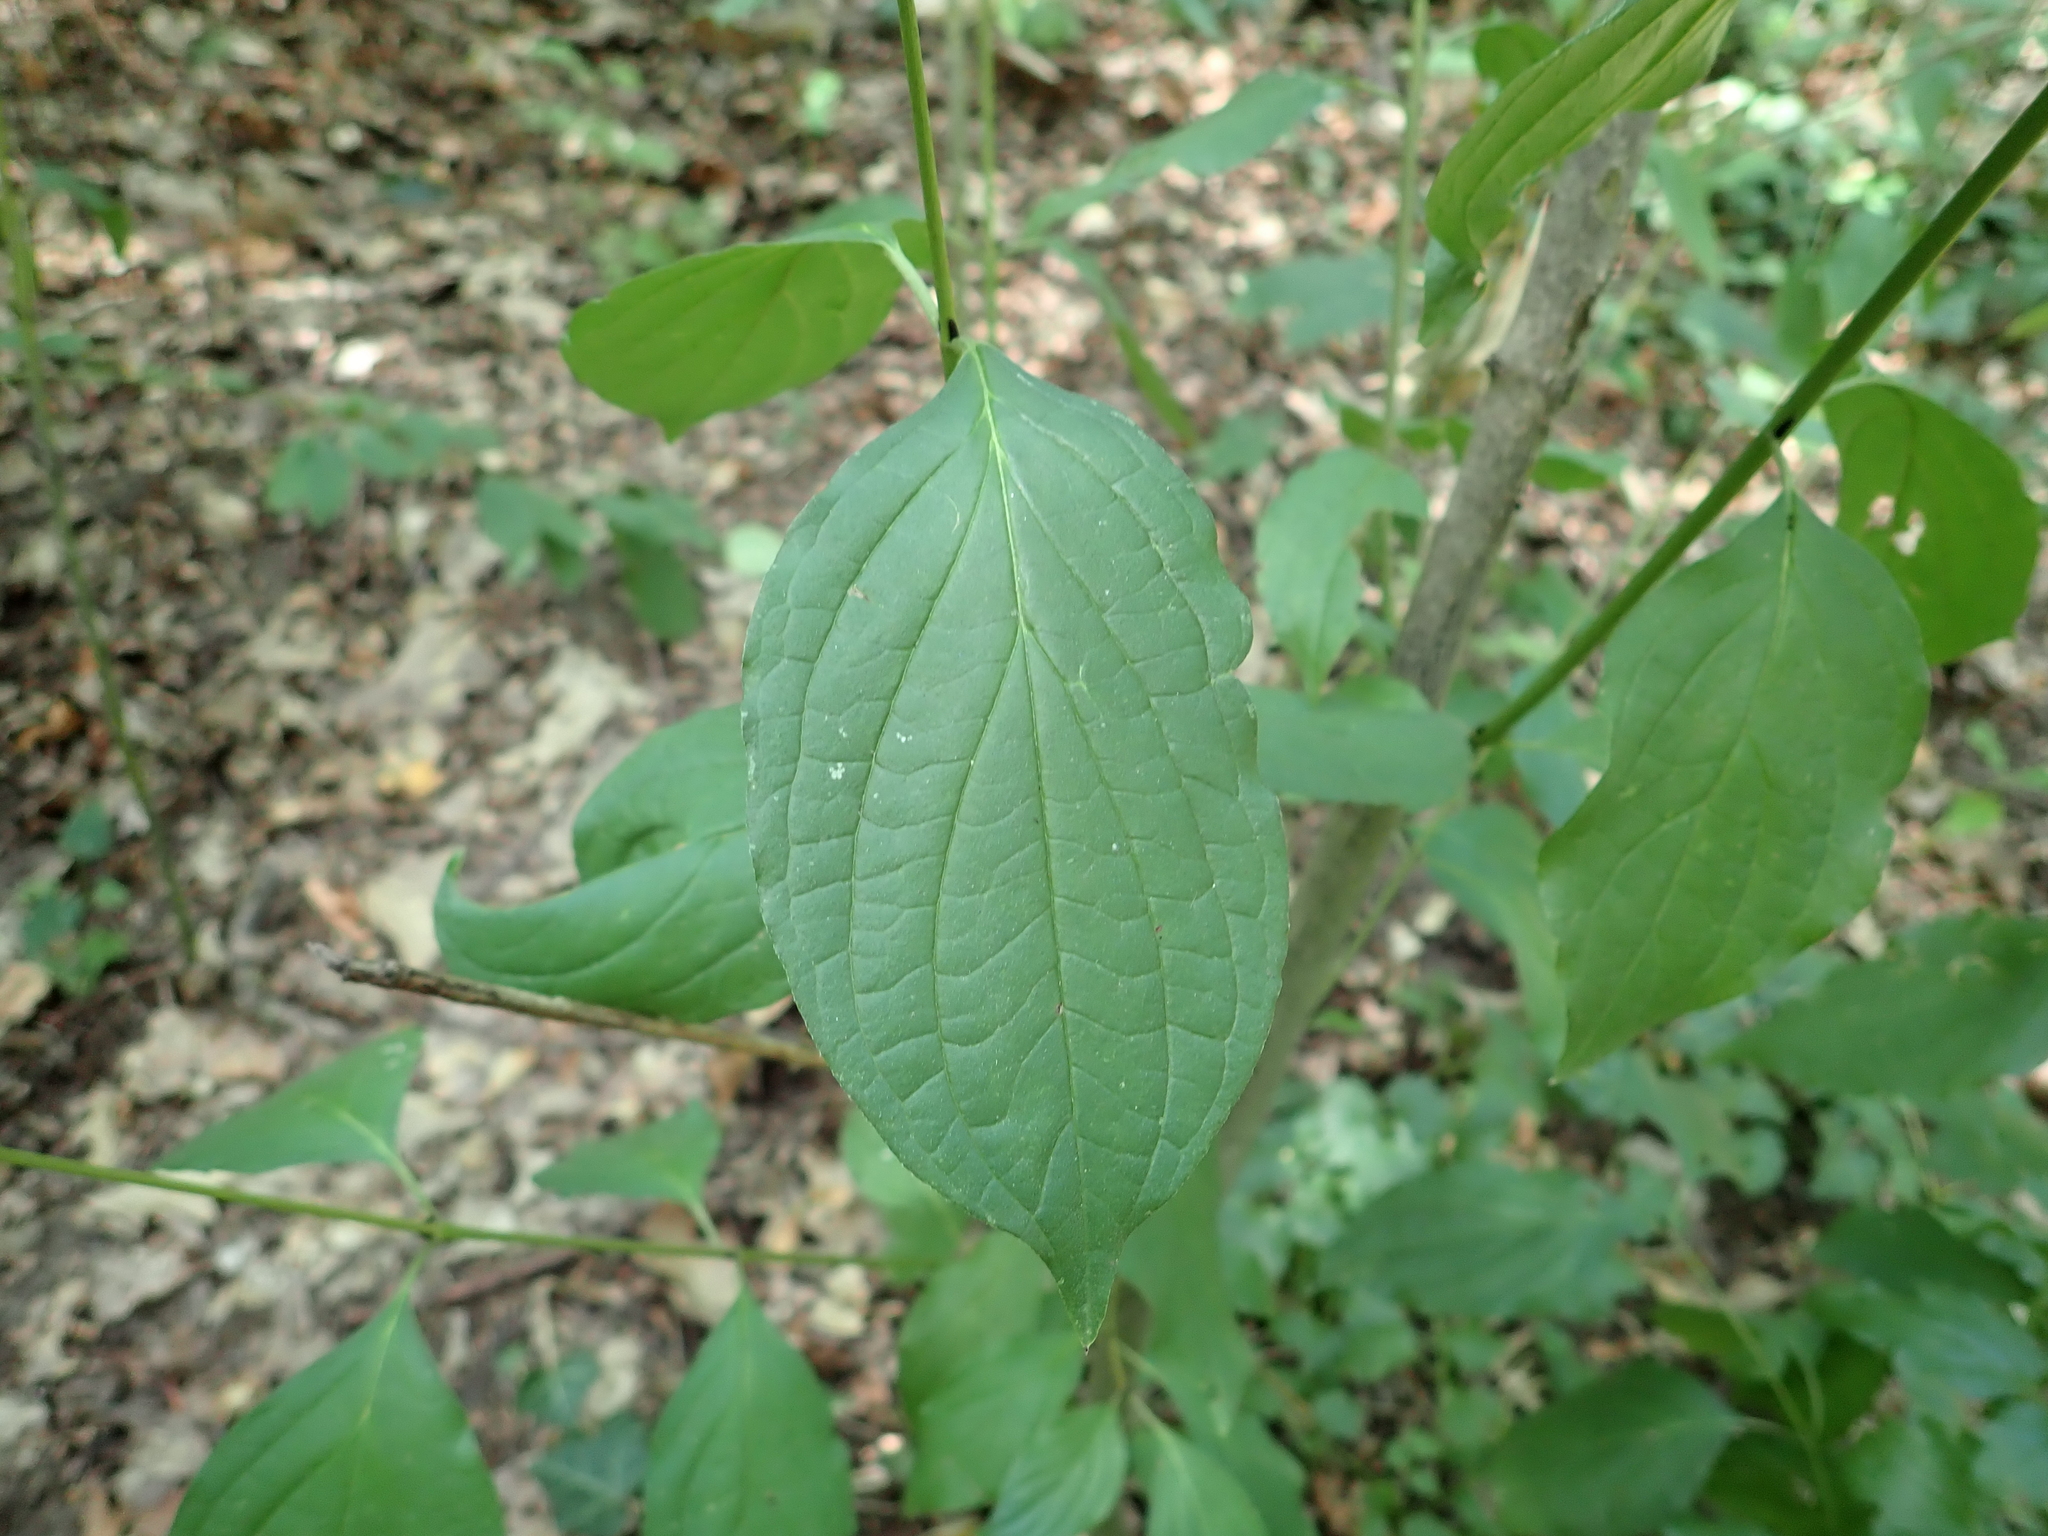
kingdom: Plantae
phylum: Tracheophyta
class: Magnoliopsida
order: Cornales
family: Cornaceae
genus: Cornus
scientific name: Cornus sanguinea
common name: Dogwood
